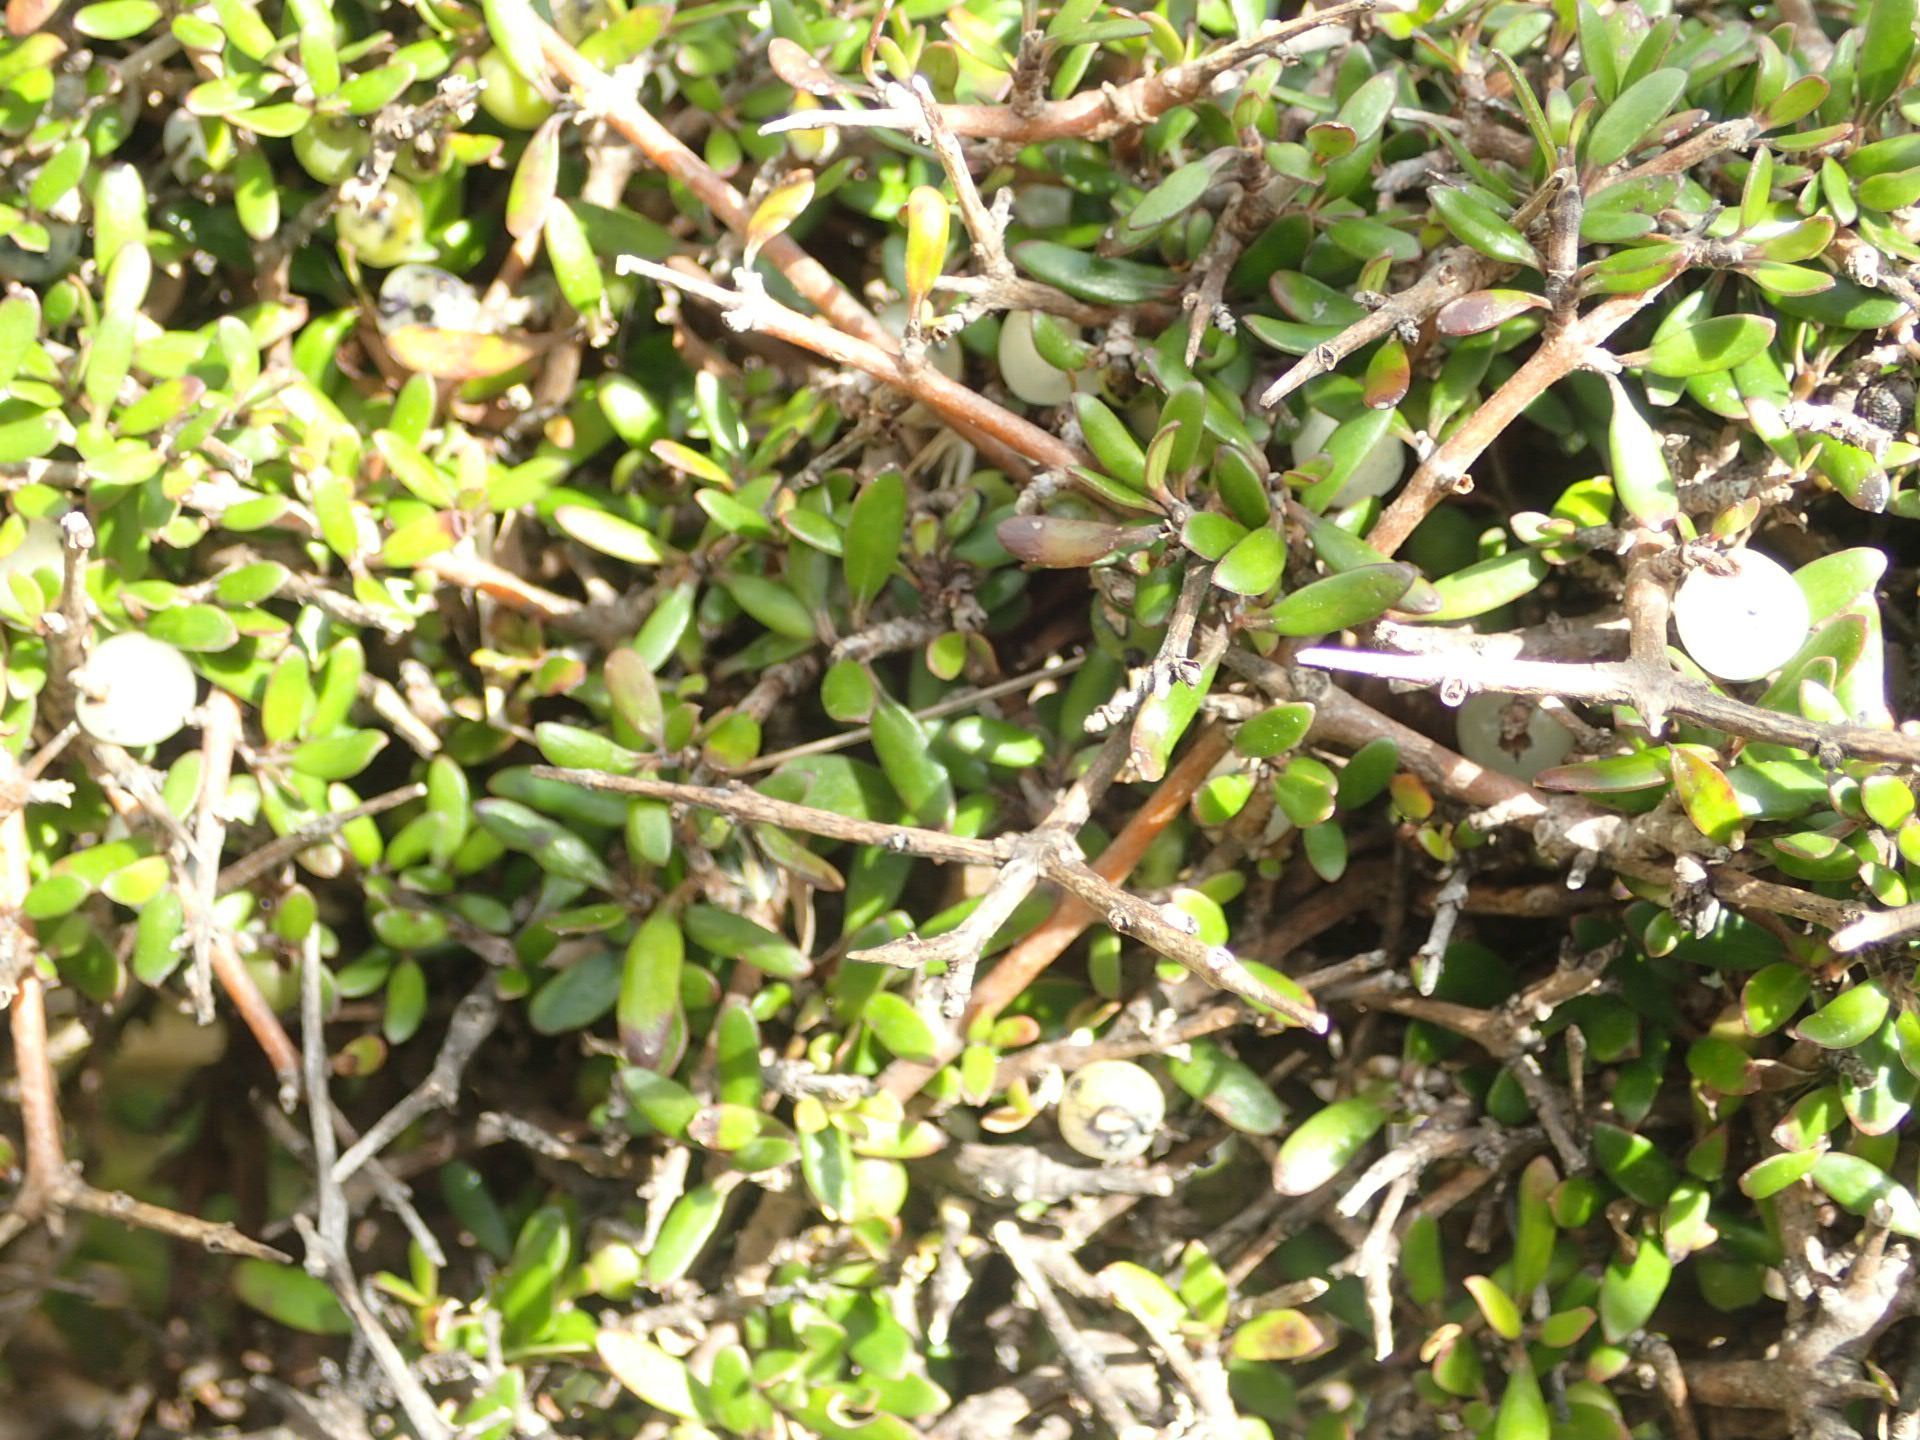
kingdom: Plantae
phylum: Tracheophyta
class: Magnoliopsida
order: Gentianales
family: Rubiaceae
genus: Coprosma
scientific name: Coprosma propinqua
